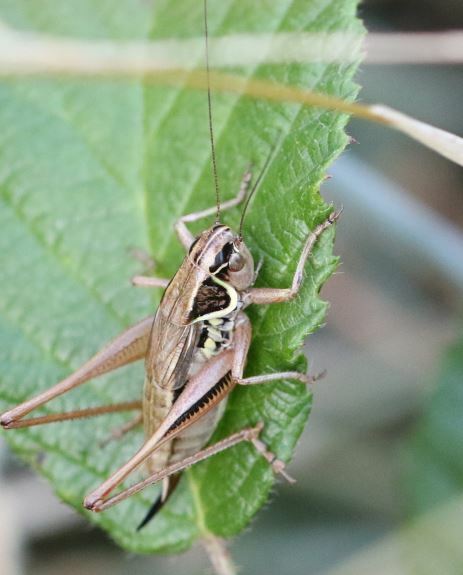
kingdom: Animalia
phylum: Arthropoda
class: Insecta
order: Orthoptera
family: Tettigoniidae
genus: Roeseliana
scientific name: Roeseliana roeselii
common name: Roesel's bush cricket
